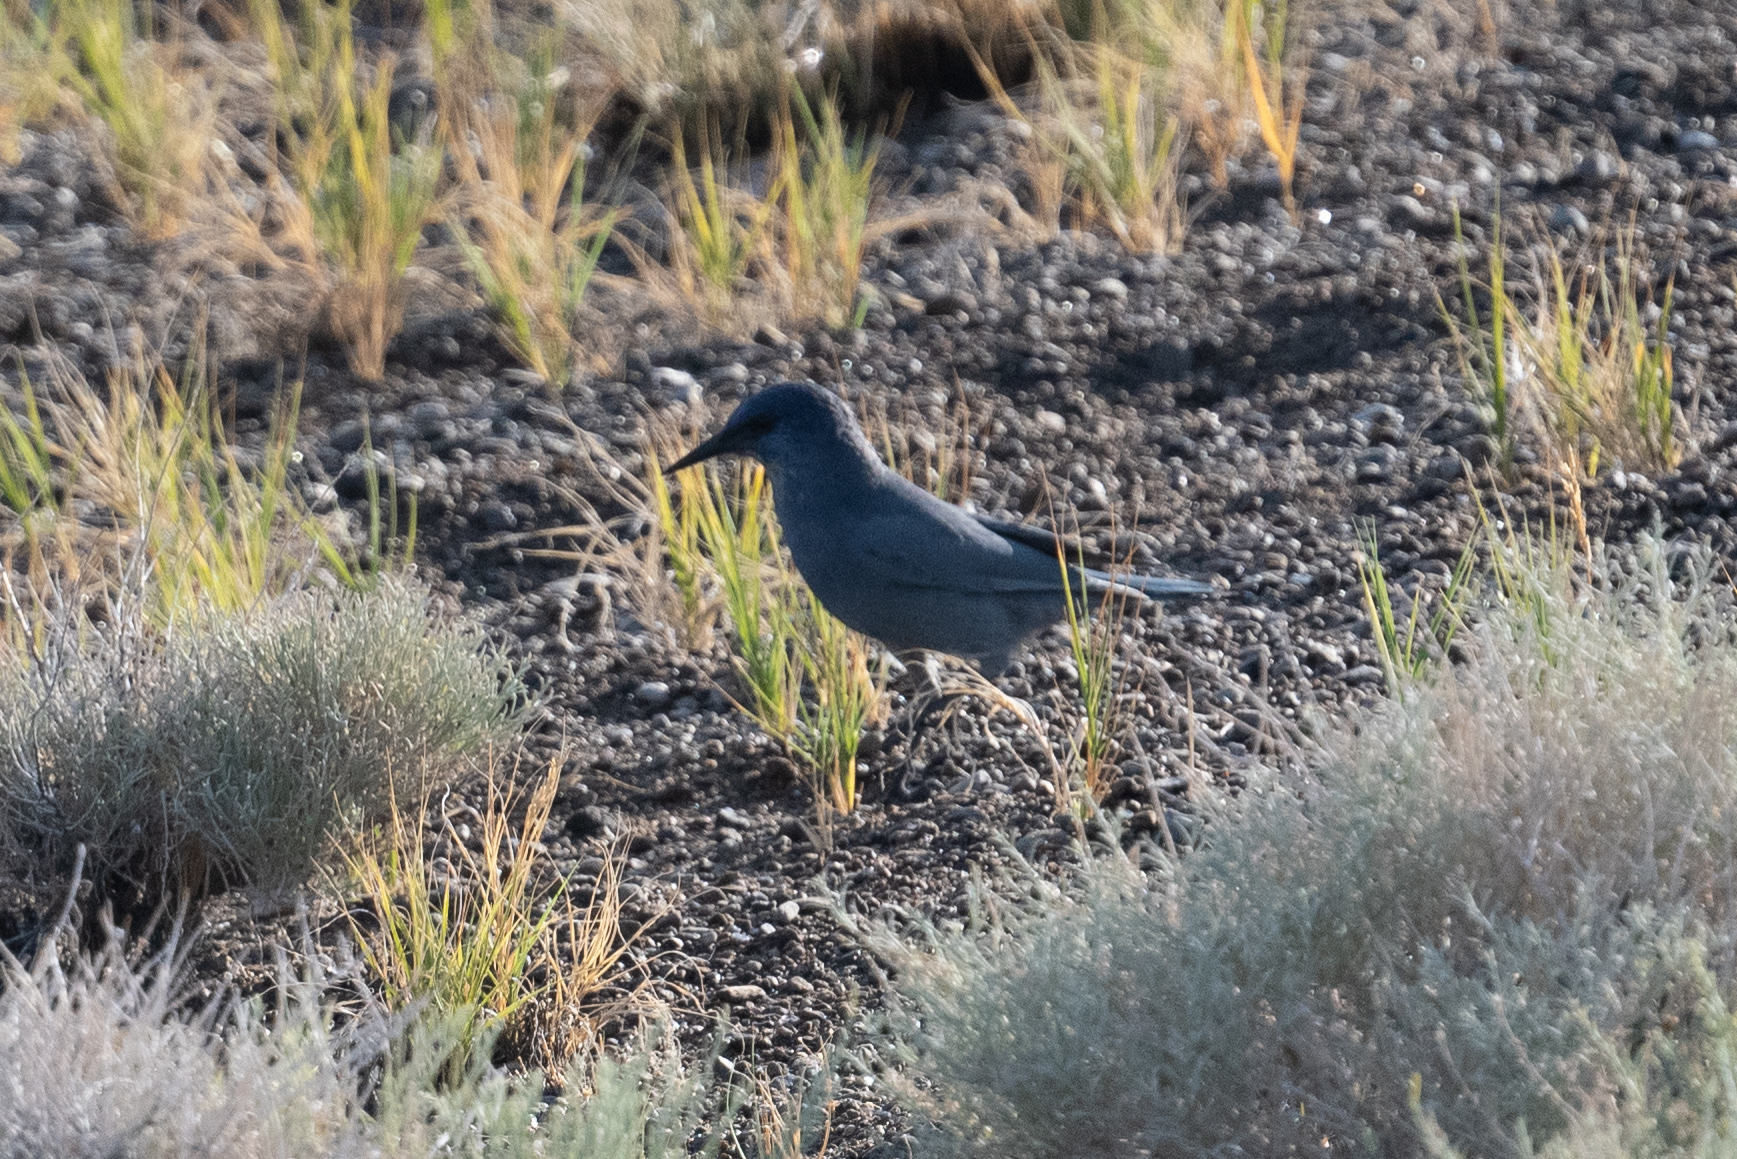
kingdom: Animalia
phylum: Chordata
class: Aves
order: Passeriformes
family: Corvidae
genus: Gymnorhinus
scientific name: Gymnorhinus cyanocephalus
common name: Pinyon jay
